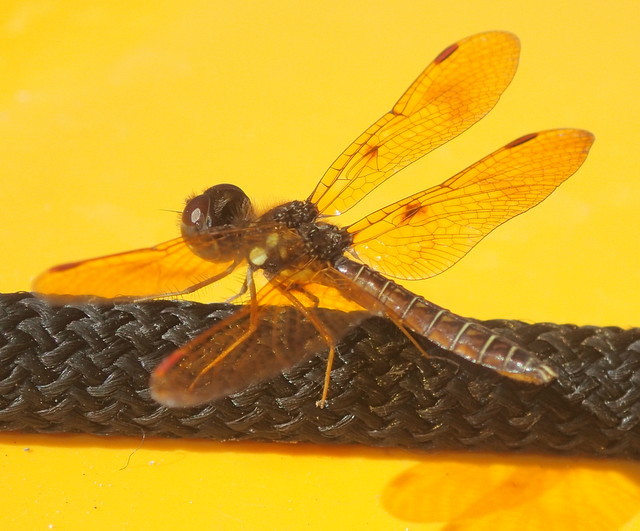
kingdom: Animalia
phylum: Arthropoda
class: Insecta
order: Odonata
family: Libellulidae
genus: Perithemis
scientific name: Perithemis tenera
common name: Eastern amberwing
